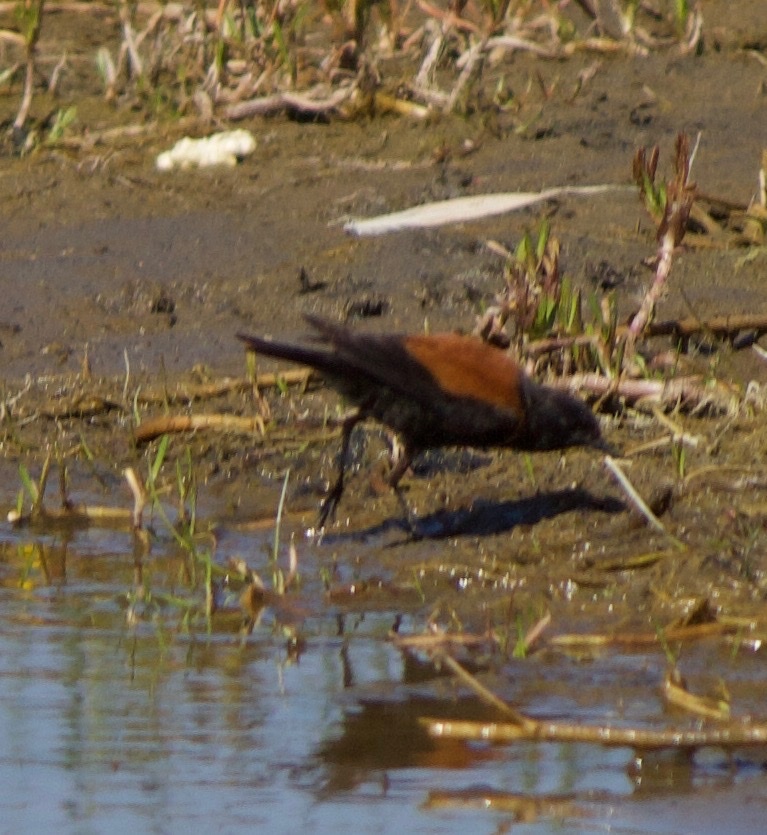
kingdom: Animalia
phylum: Chordata
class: Aves
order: Passeriformes
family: Tyrannidae
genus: Lessonia
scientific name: Lessonia rufa
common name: Austral negrito
